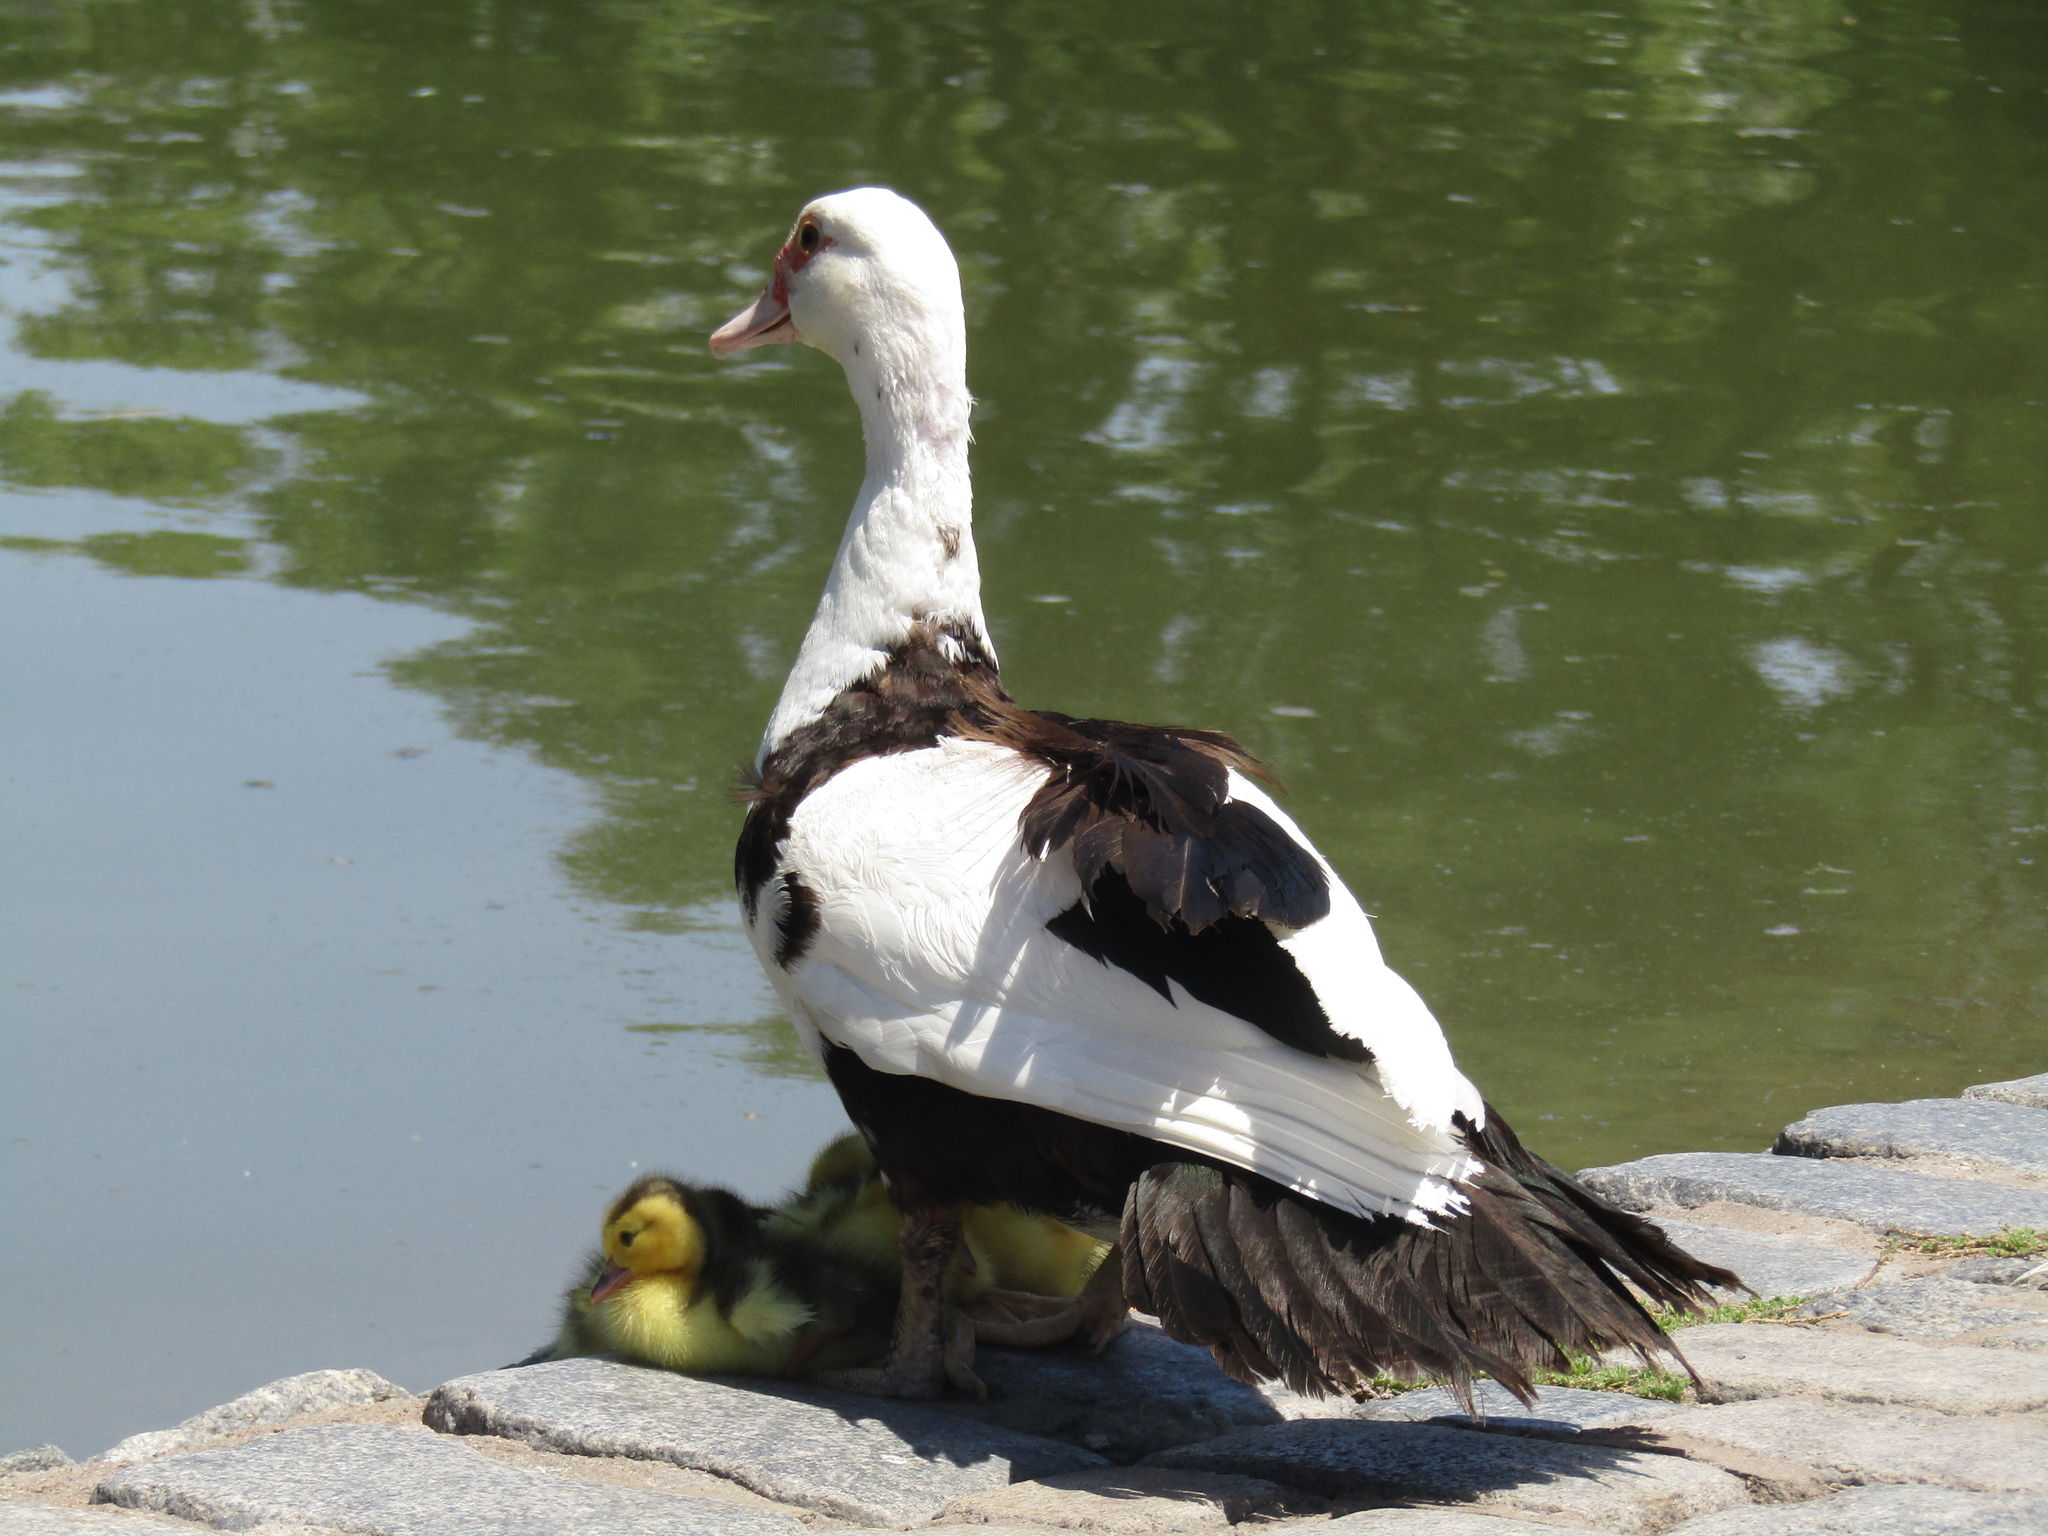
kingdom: Animalia
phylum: Chordata
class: Aves
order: Anseriformes
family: Anatidae
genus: Cairina
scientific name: Cairina moschata
